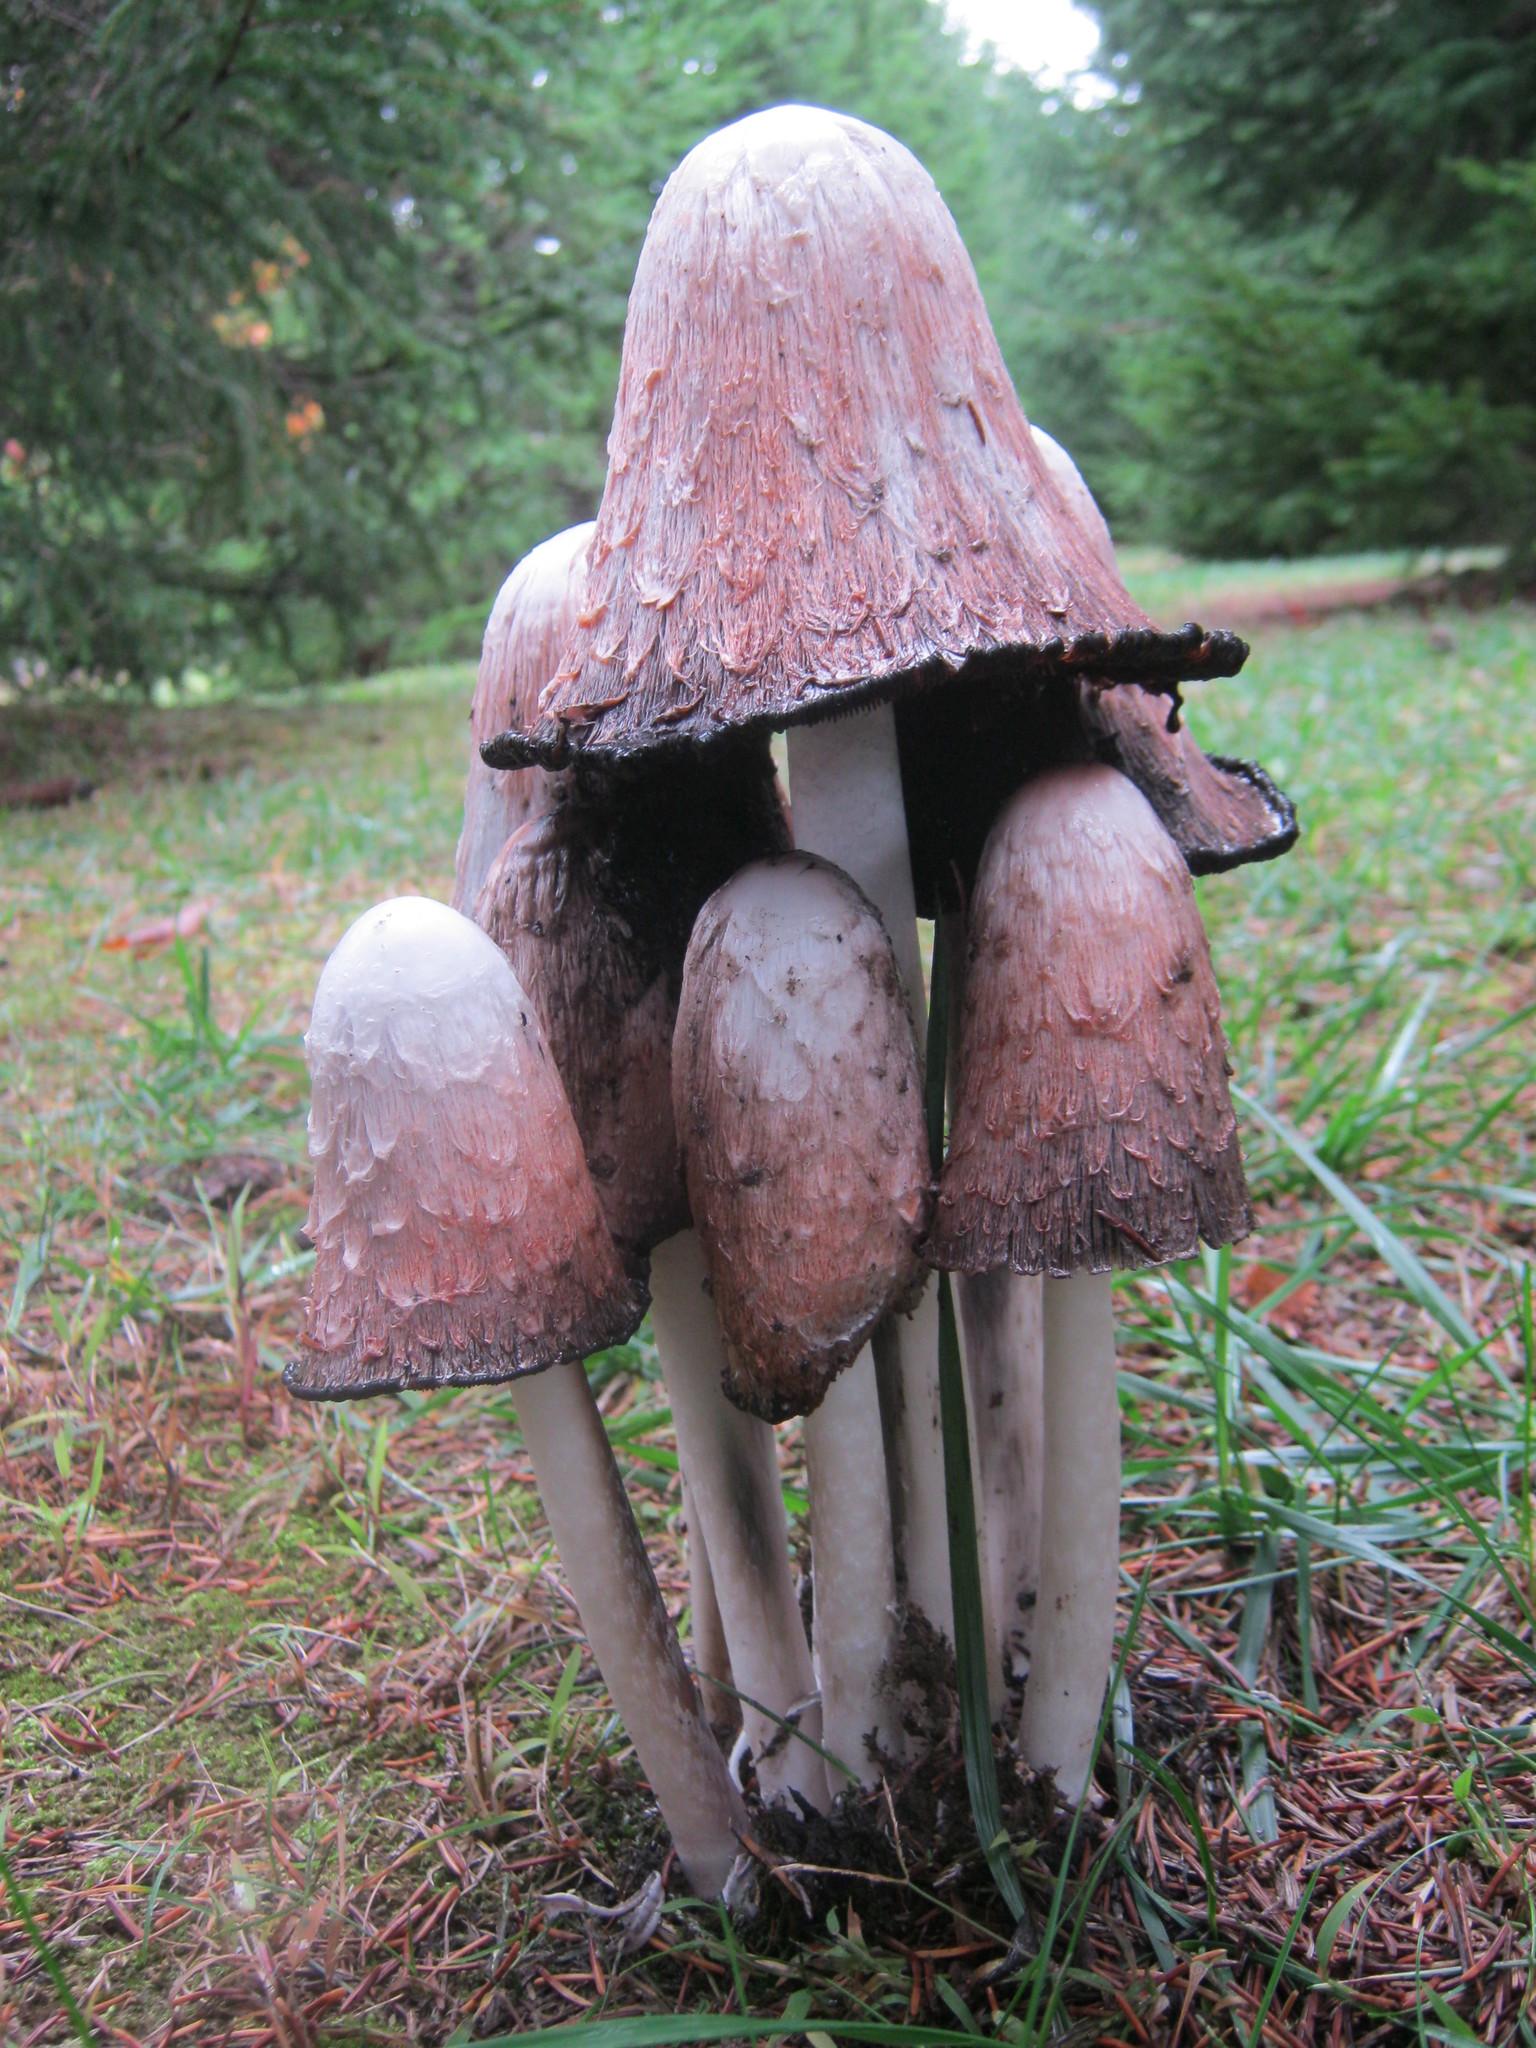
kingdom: Fungi
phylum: Basidiomycota
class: Agaricomycetes
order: Agaricales
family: Agaricaceae
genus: Coprinus
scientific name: Coprinus comatus
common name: Lawyer's wig
